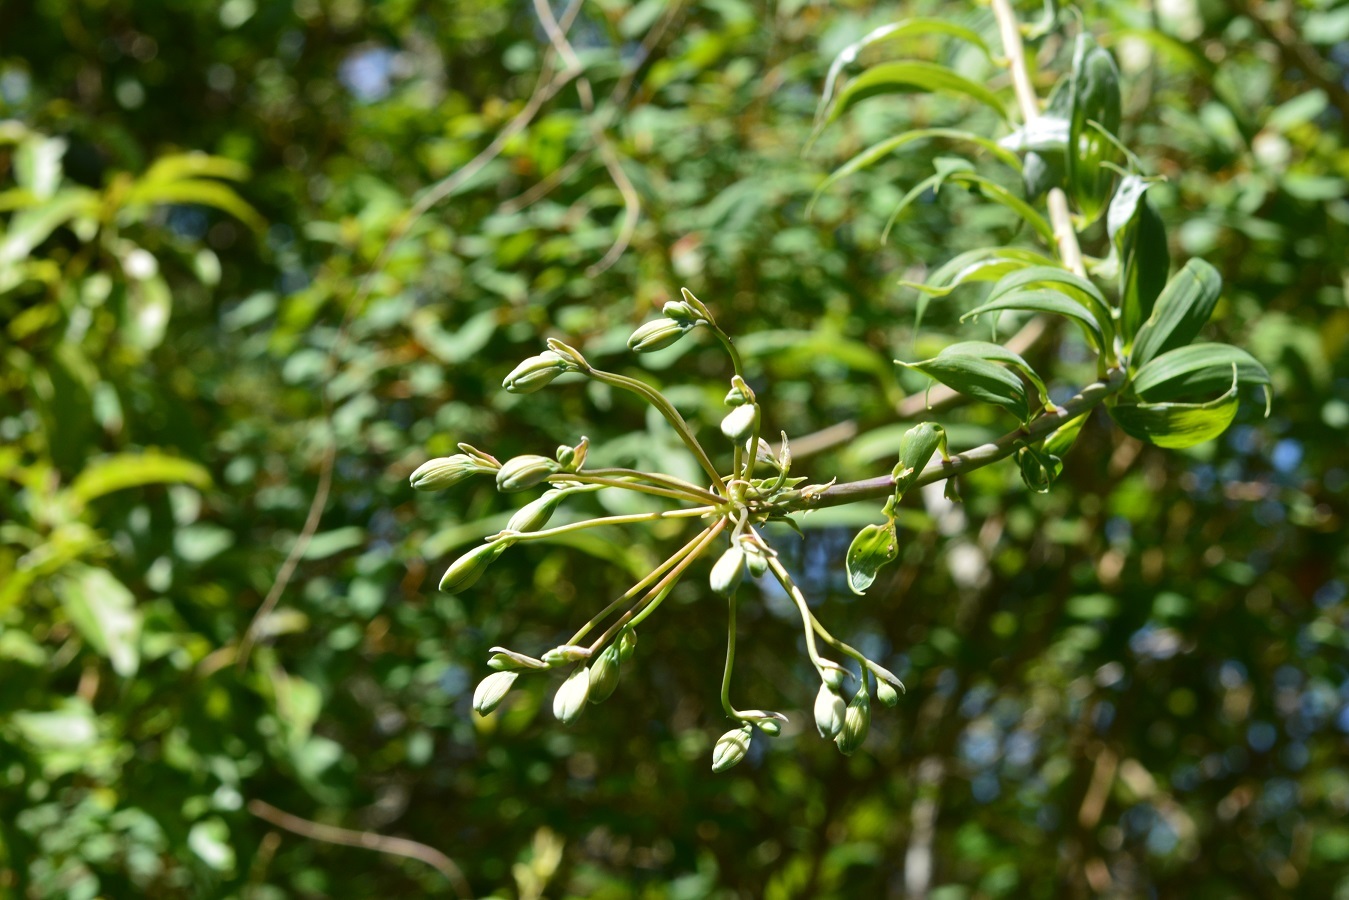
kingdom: Plantae
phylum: Tracheophyta
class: Liliopsida
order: Liliales
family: Alstroemeriaceae
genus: Bomarea
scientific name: Bomarea edulis
